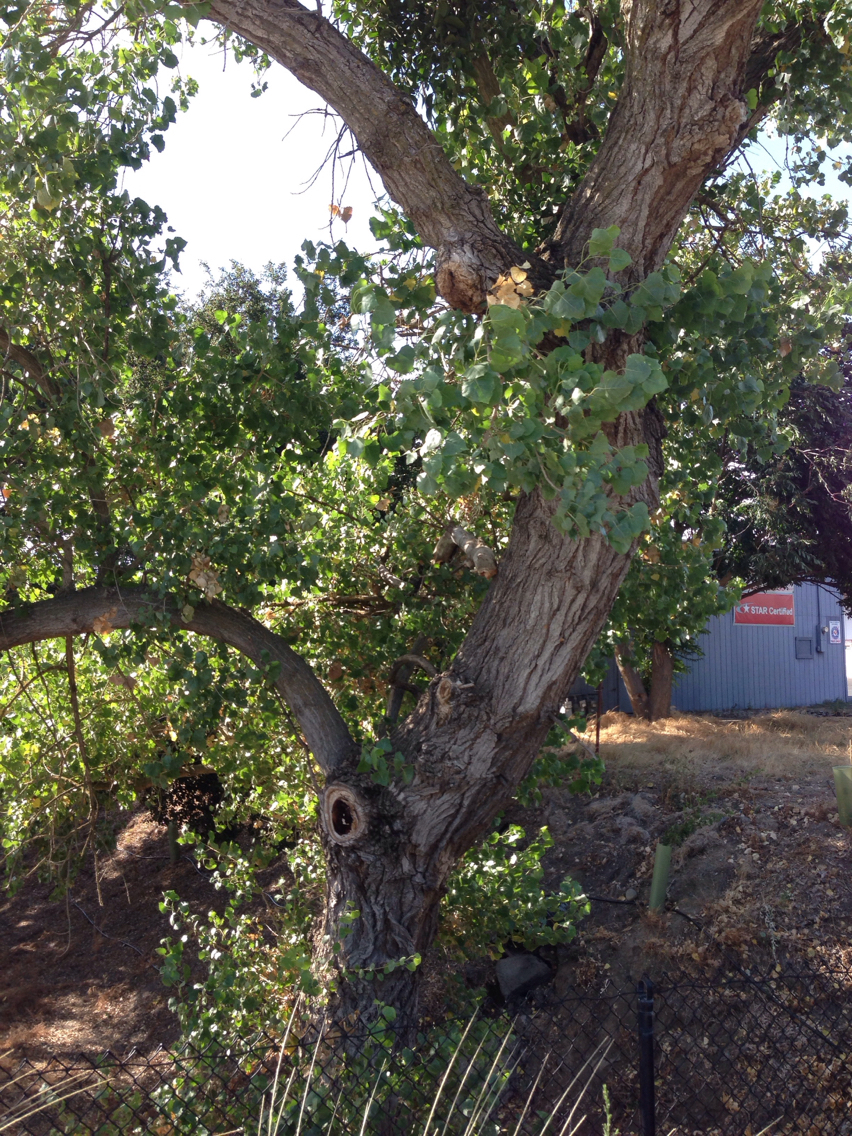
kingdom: Plantae
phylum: Tracheophyta
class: Magnoliopsida
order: Malpighiales
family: Salicaceae
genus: Populus
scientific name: Populus fremontii
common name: Fremont's cottonwood
